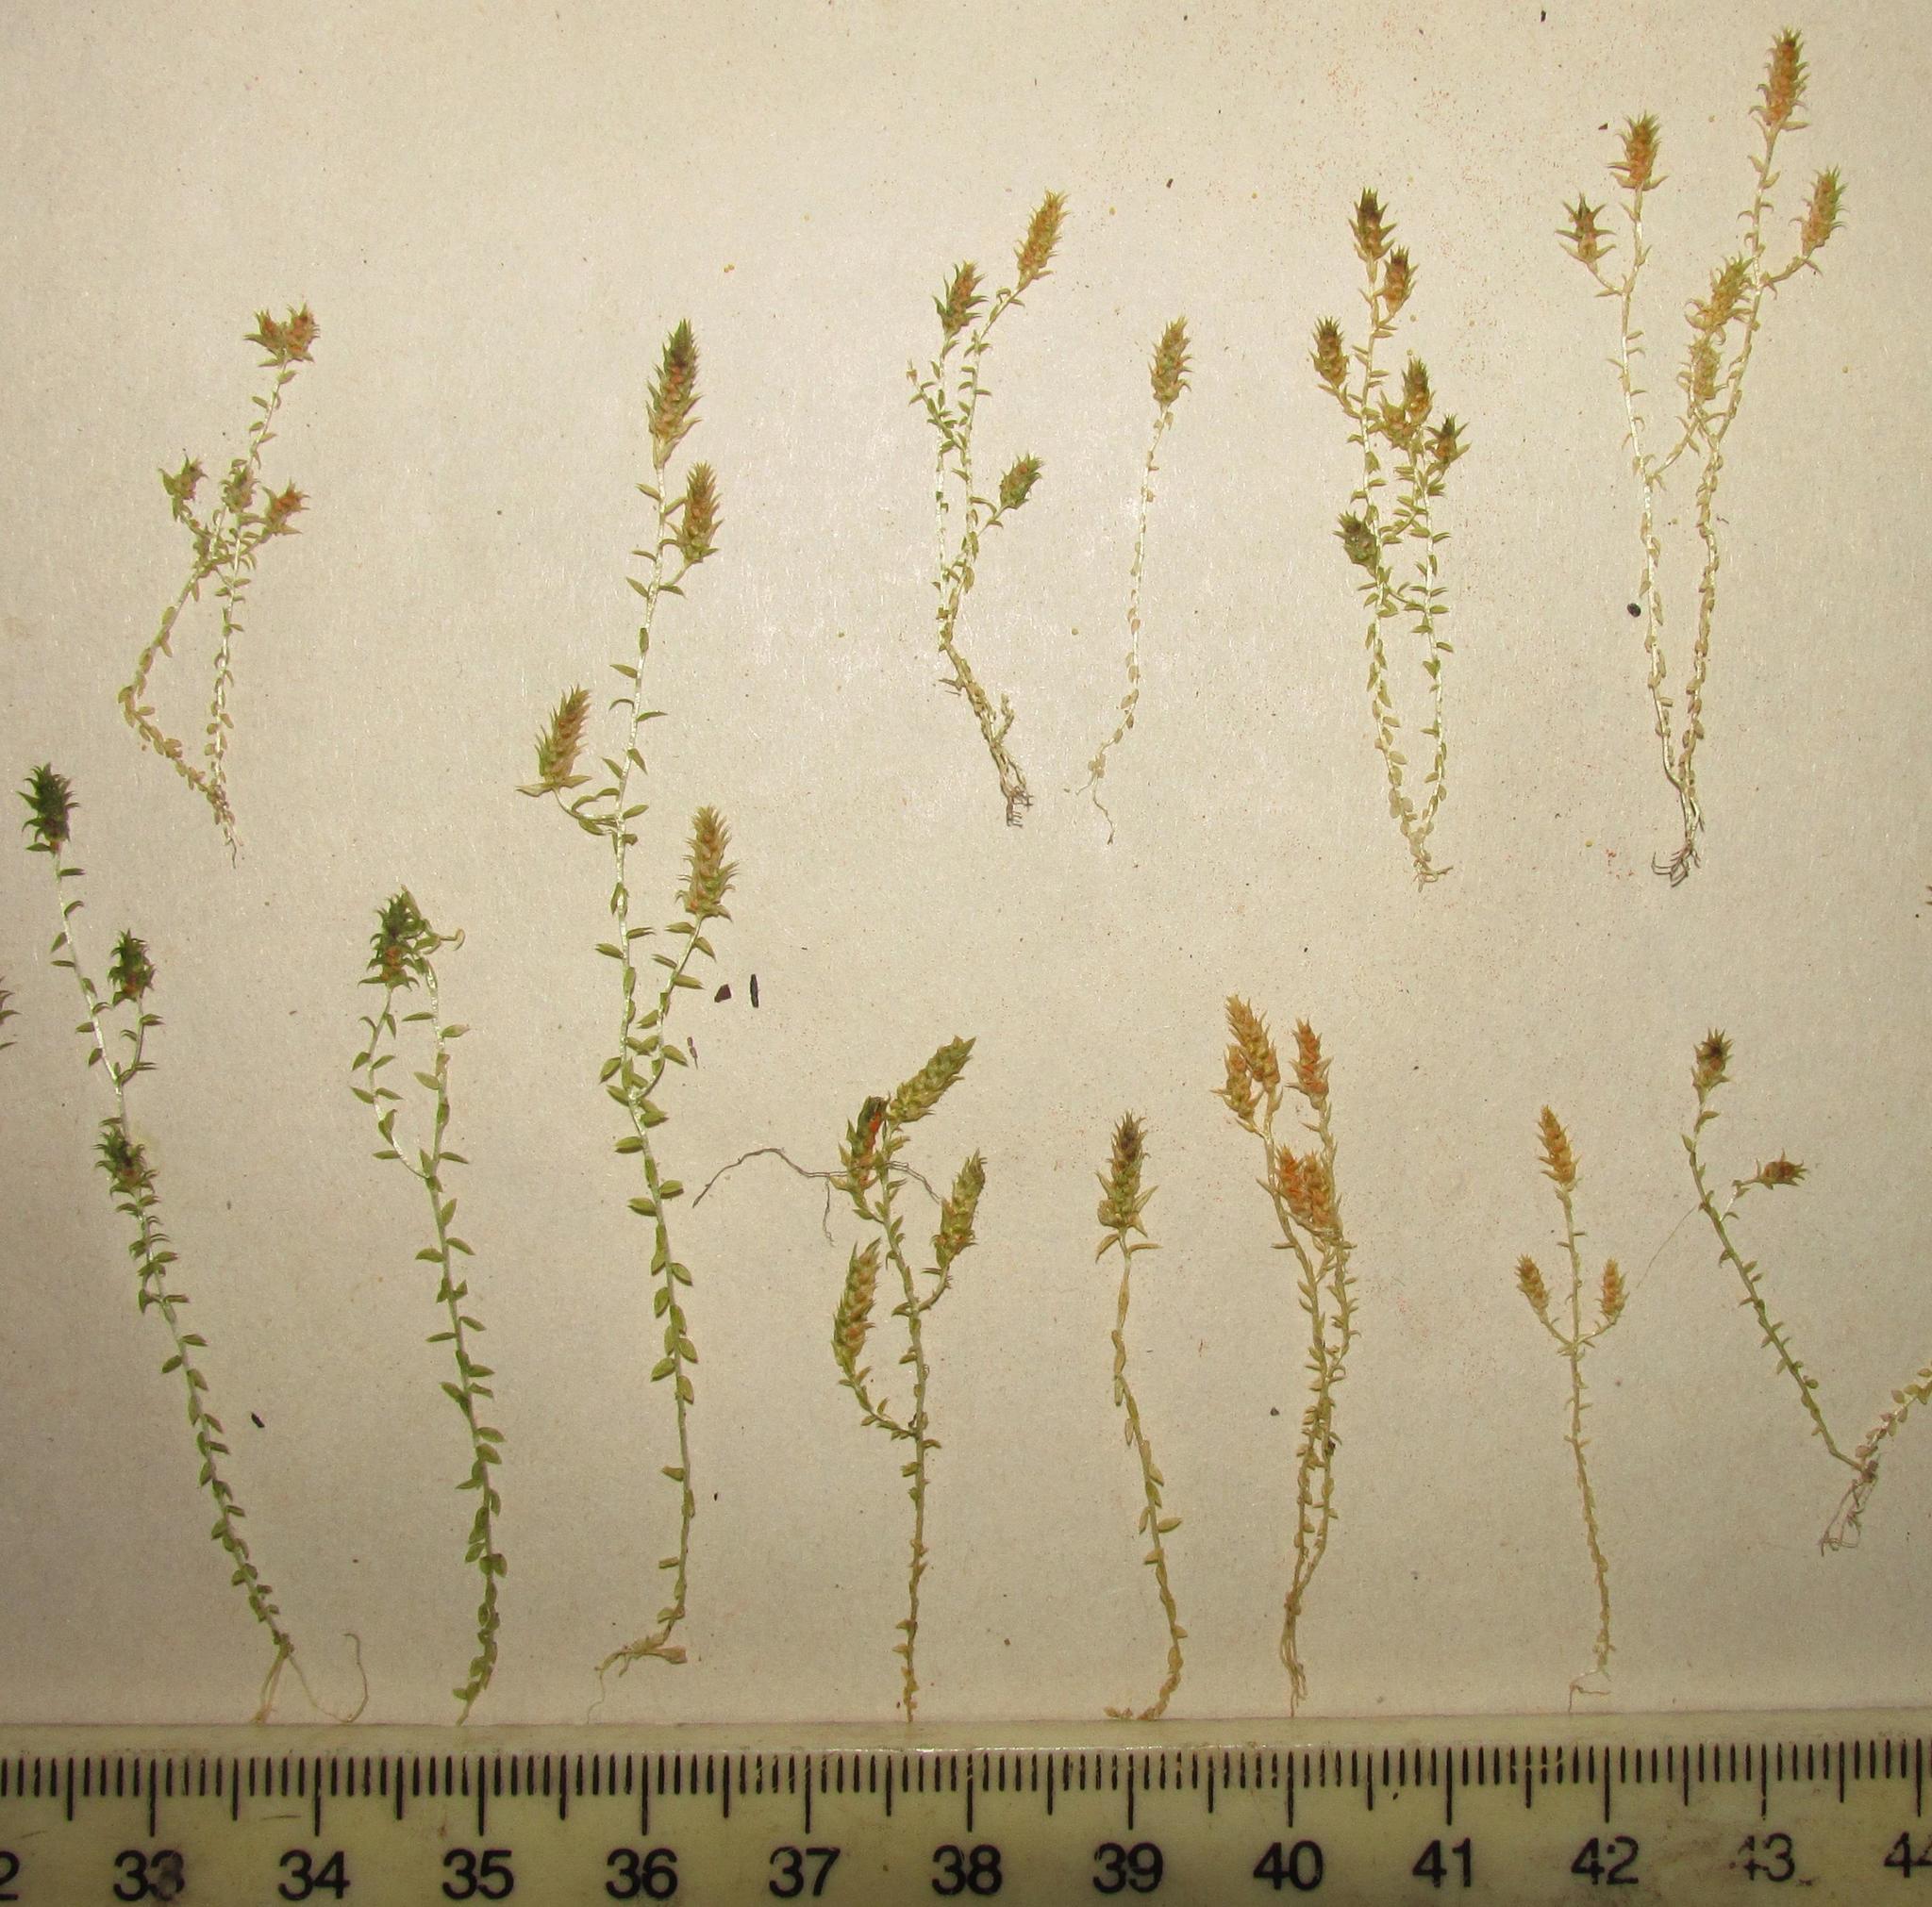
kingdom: Plantae
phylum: Tracheophyta
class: Lycopodiopsida
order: Selaginellales
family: Selaginellaceae
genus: Selaginella
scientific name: Selaginella pygmaea
